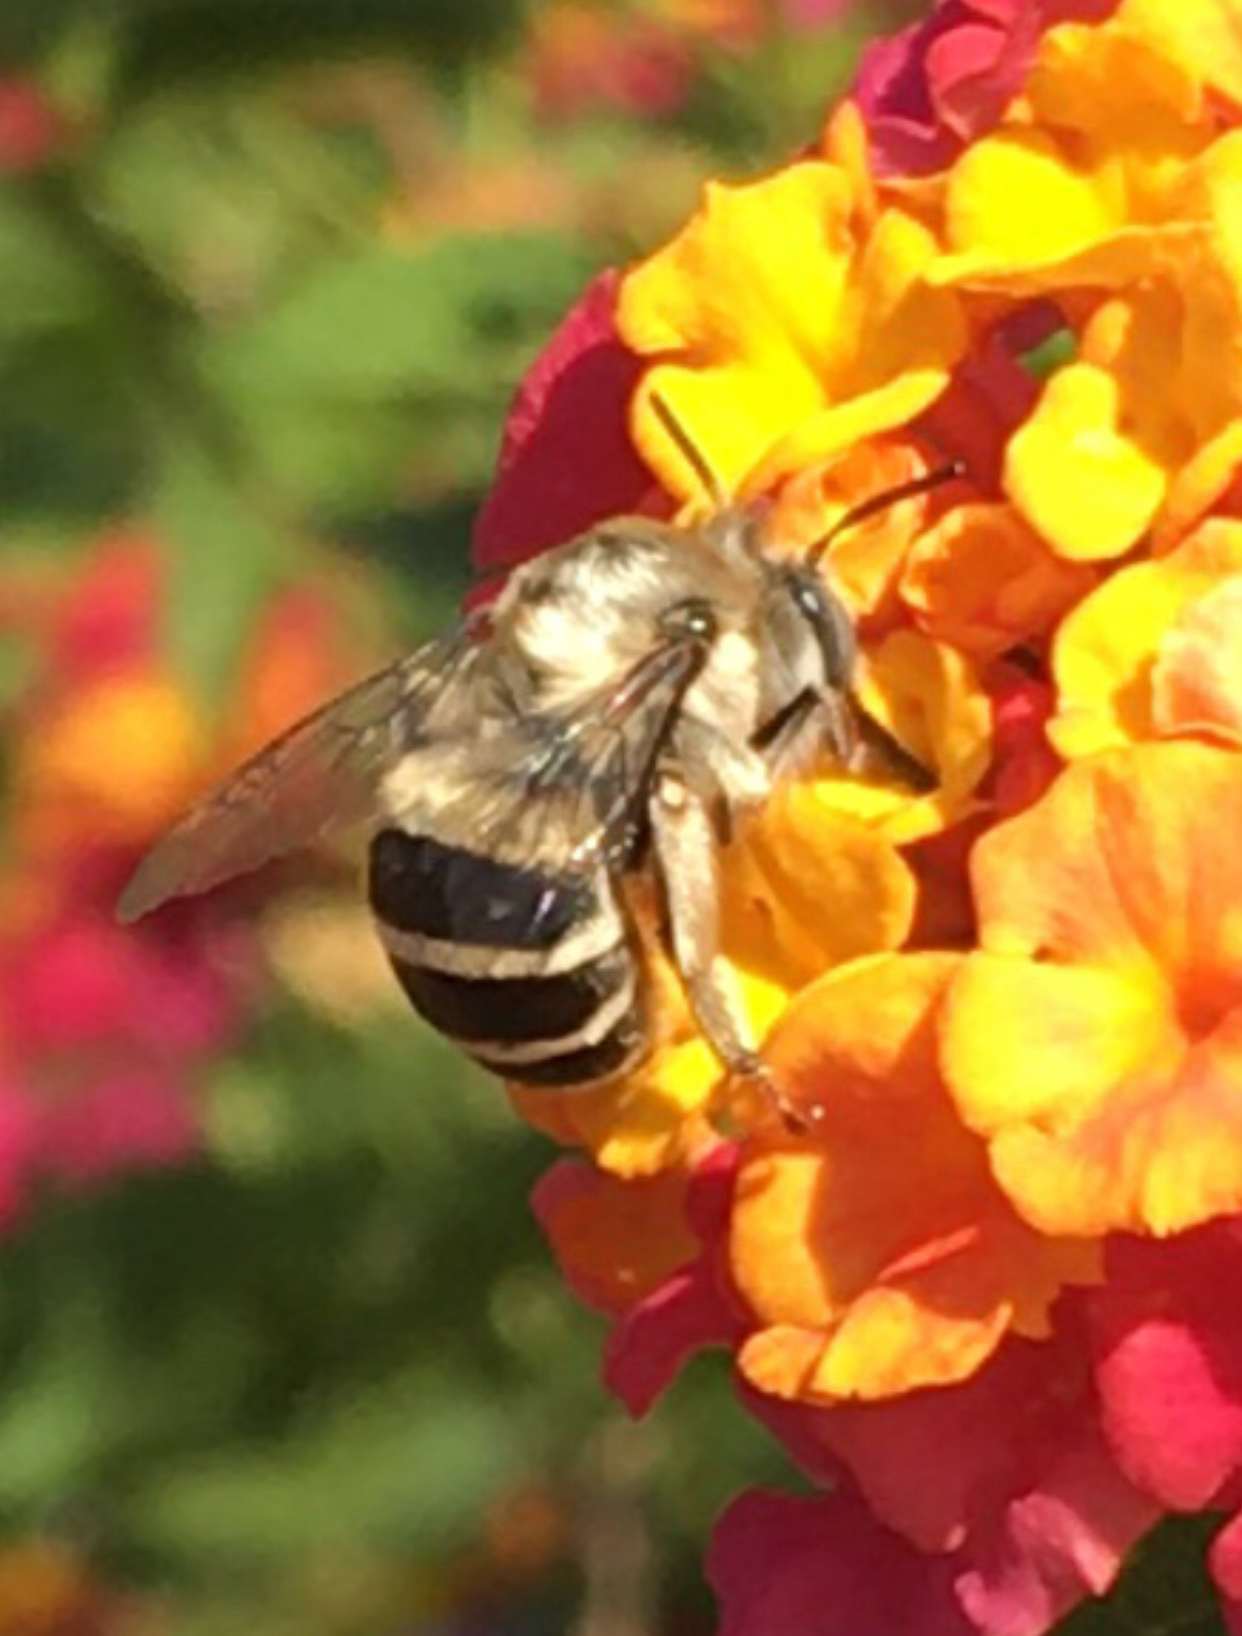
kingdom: Animalia
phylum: Arthropoda
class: Insecta
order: Hymenoptera
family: Apidae
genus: Anthophora
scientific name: Anthophora urbana
